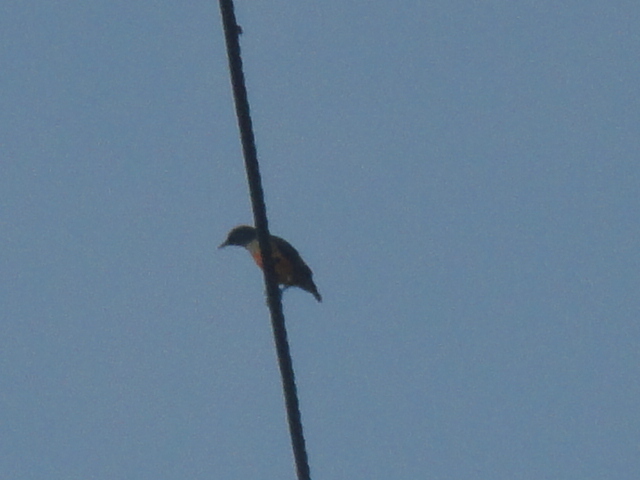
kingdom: Animalia
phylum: Chordata
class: Aves
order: Passeriformes
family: Dicaeidae
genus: Dicaeum
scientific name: Dicaeum trigonostigma
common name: Orange-bellied flowerpecker
